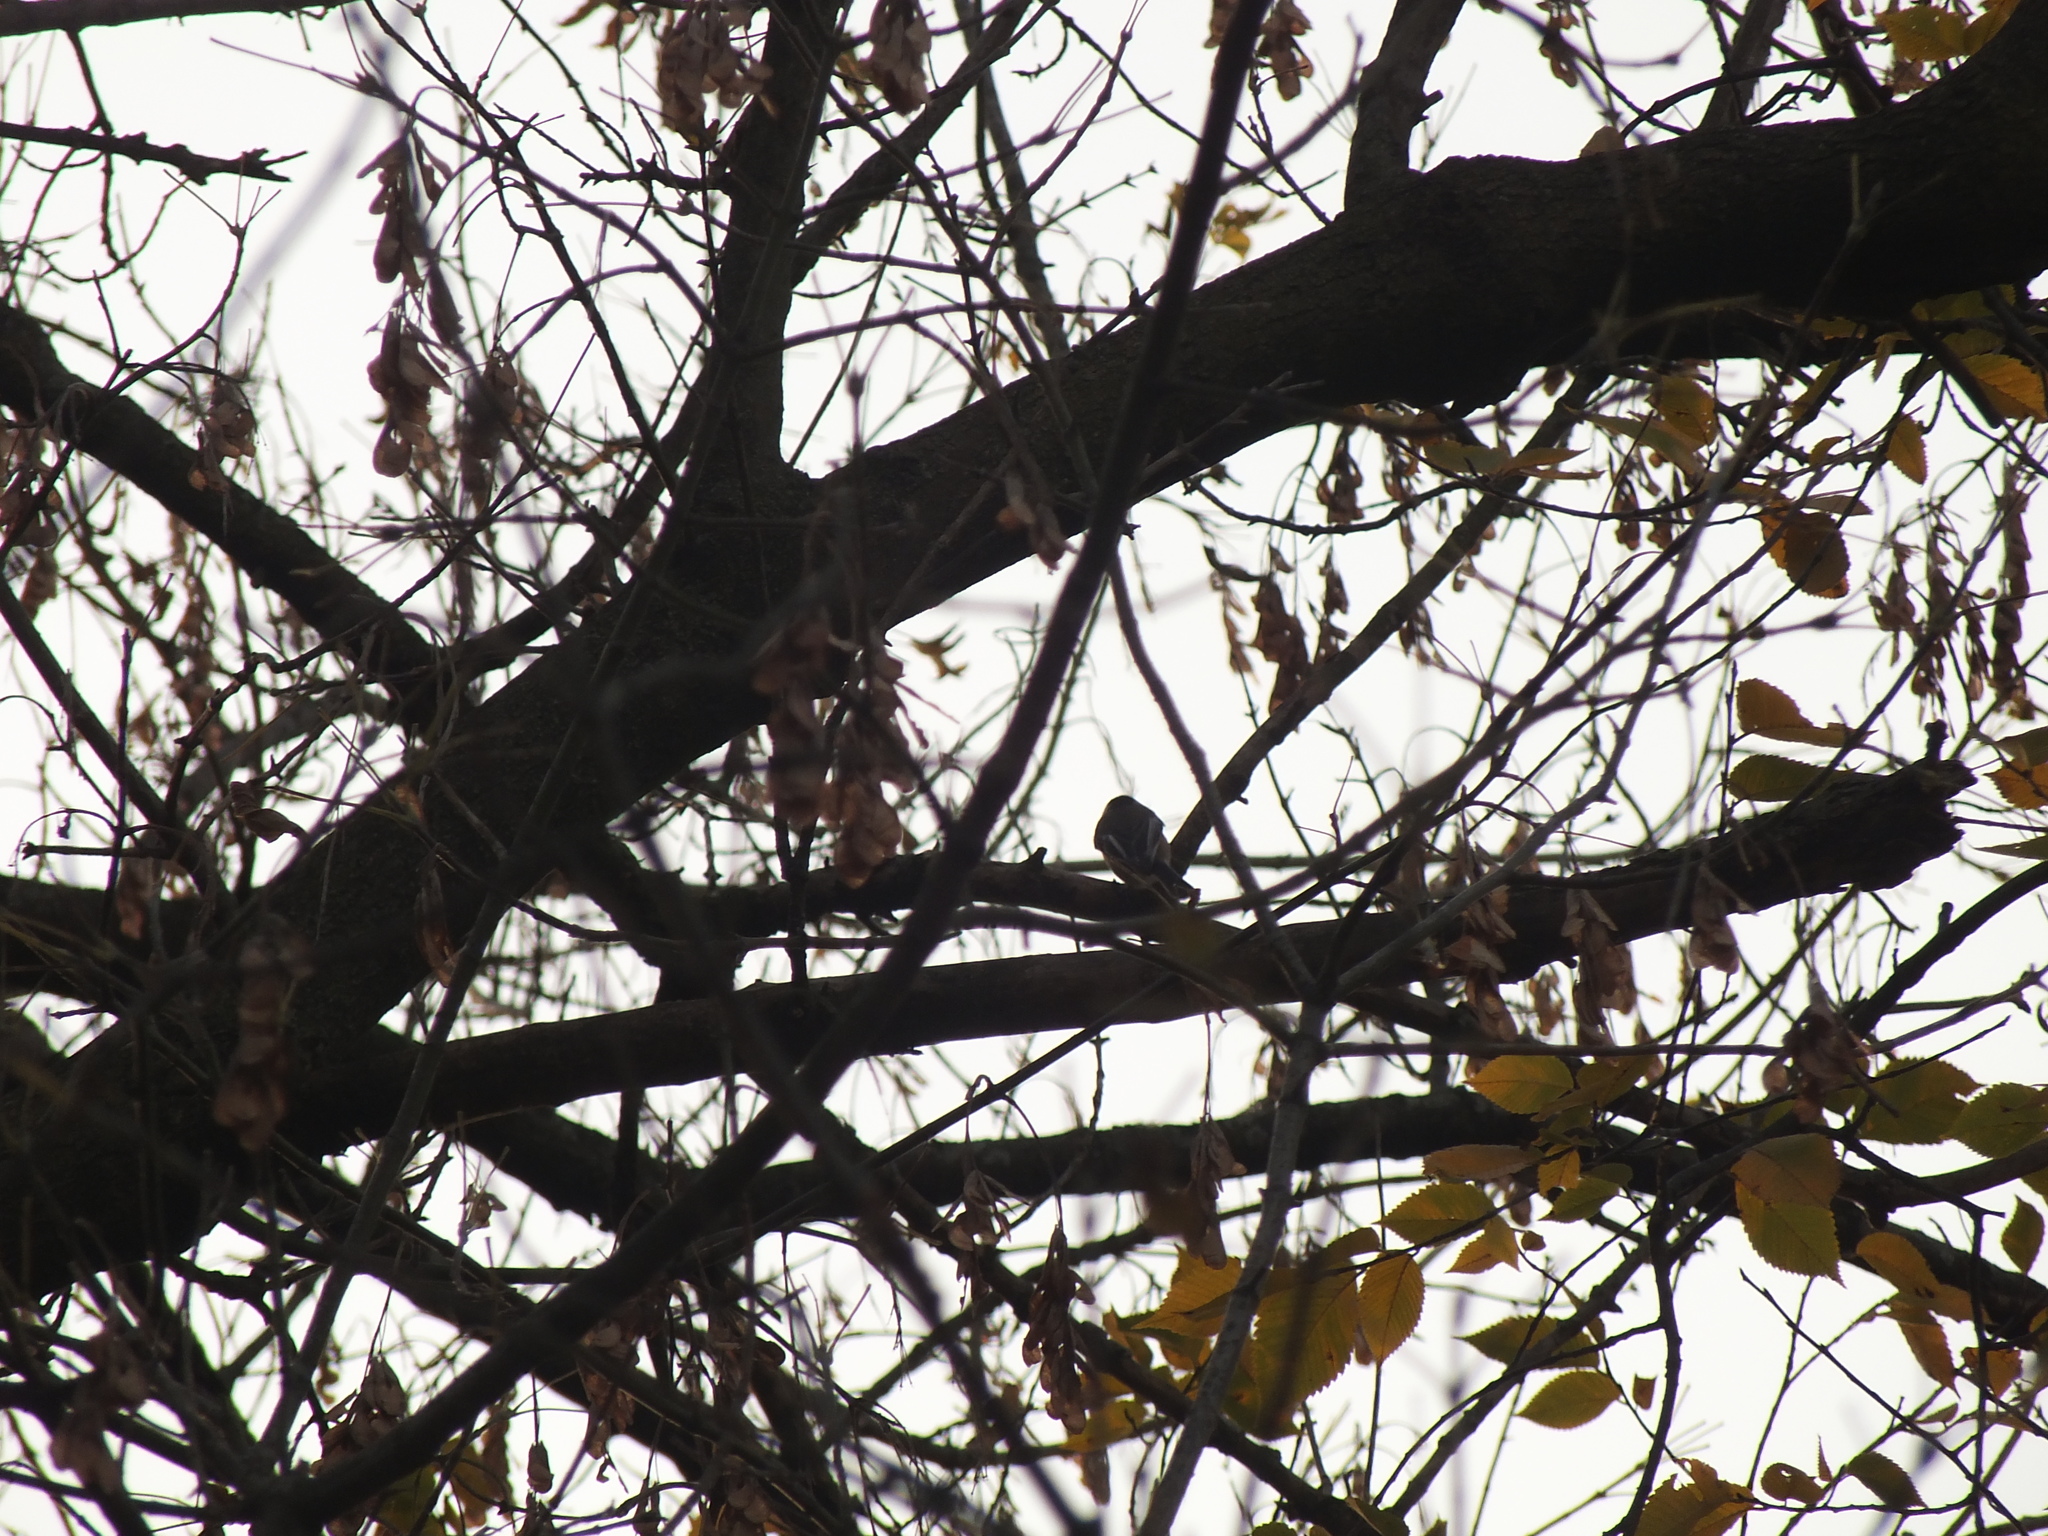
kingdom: Animalia
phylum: Chordata
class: Aves
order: Passeriformes
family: Paridae
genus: Poecile
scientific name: Poecile atricapillus
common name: Black-capped chickadee
